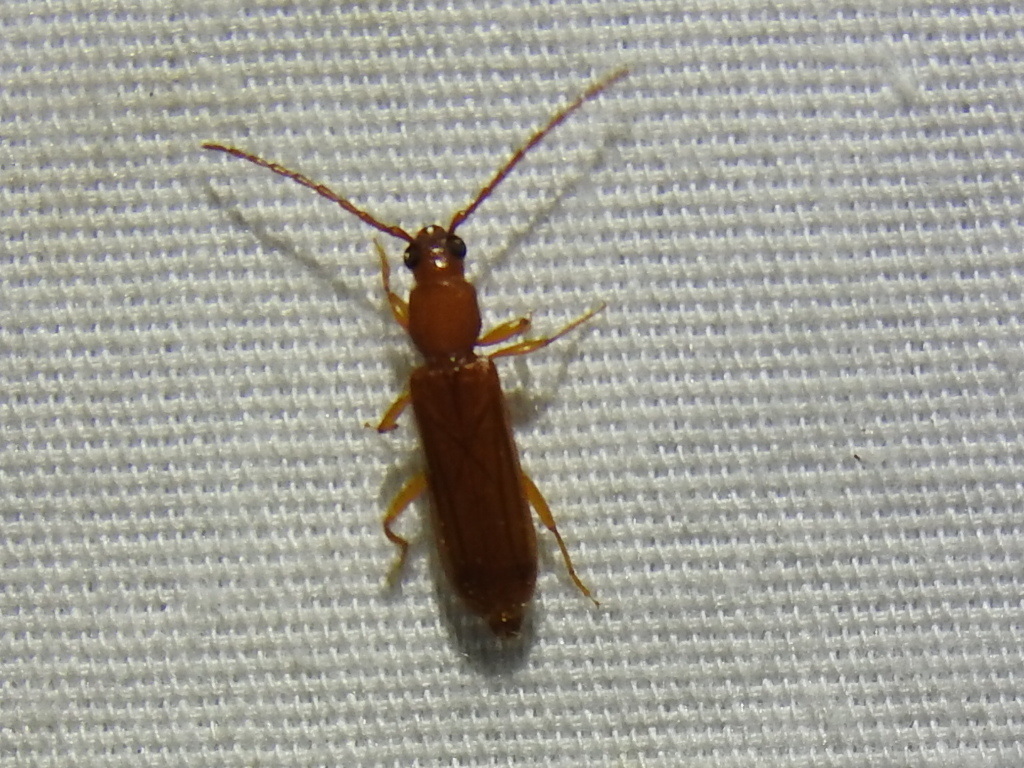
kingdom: Animalia
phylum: Arthropoda
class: Insecta
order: Coleoptera
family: Cerambycidae
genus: Smodicum
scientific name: Smodicum cucujiforme
